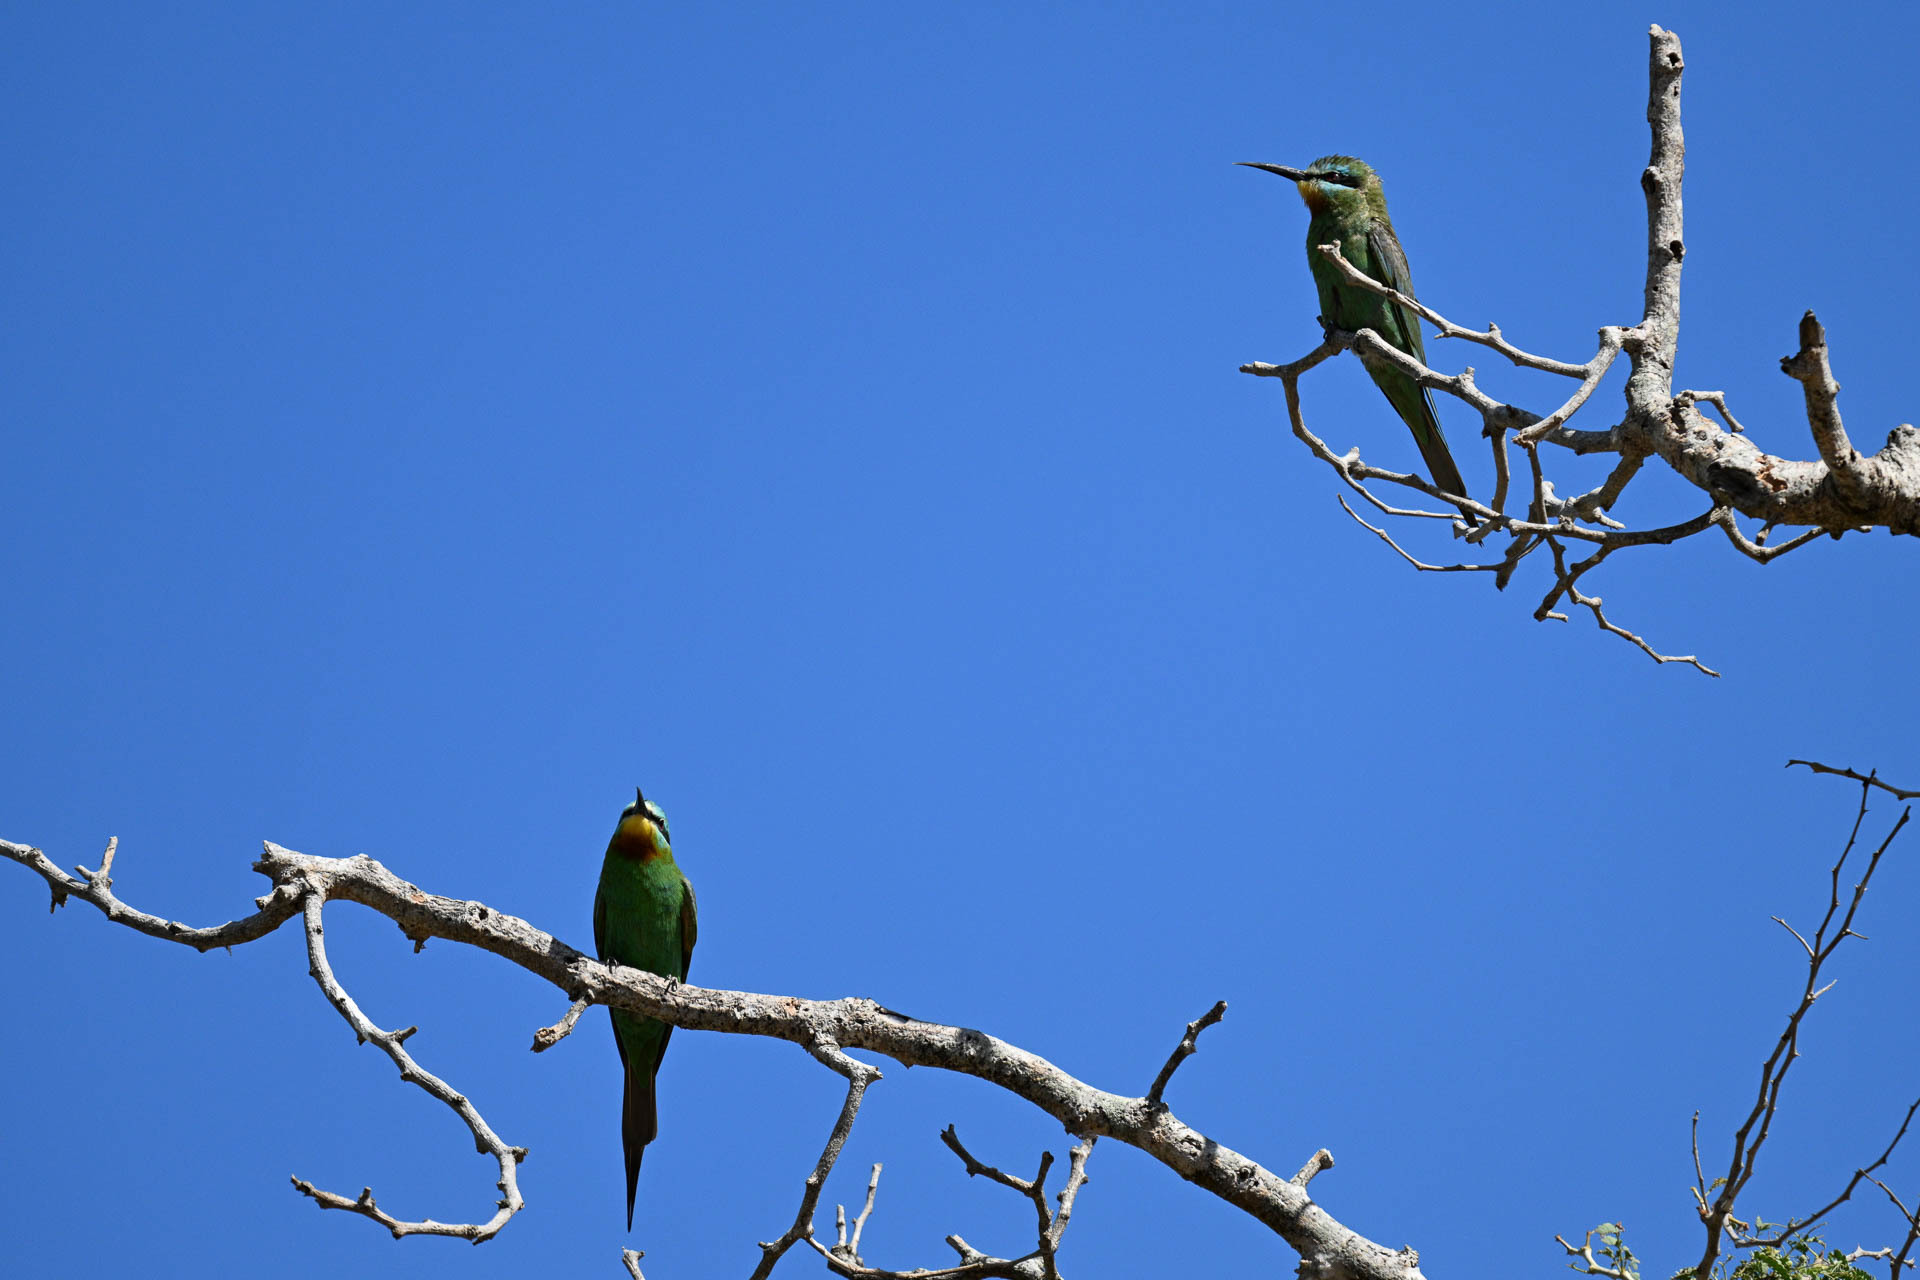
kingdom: Animalia
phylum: Chordata
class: Aves
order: Coraciiformes
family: Meropidae
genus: Merops
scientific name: Merops persicus
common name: Blue-cheeked bee-eater
